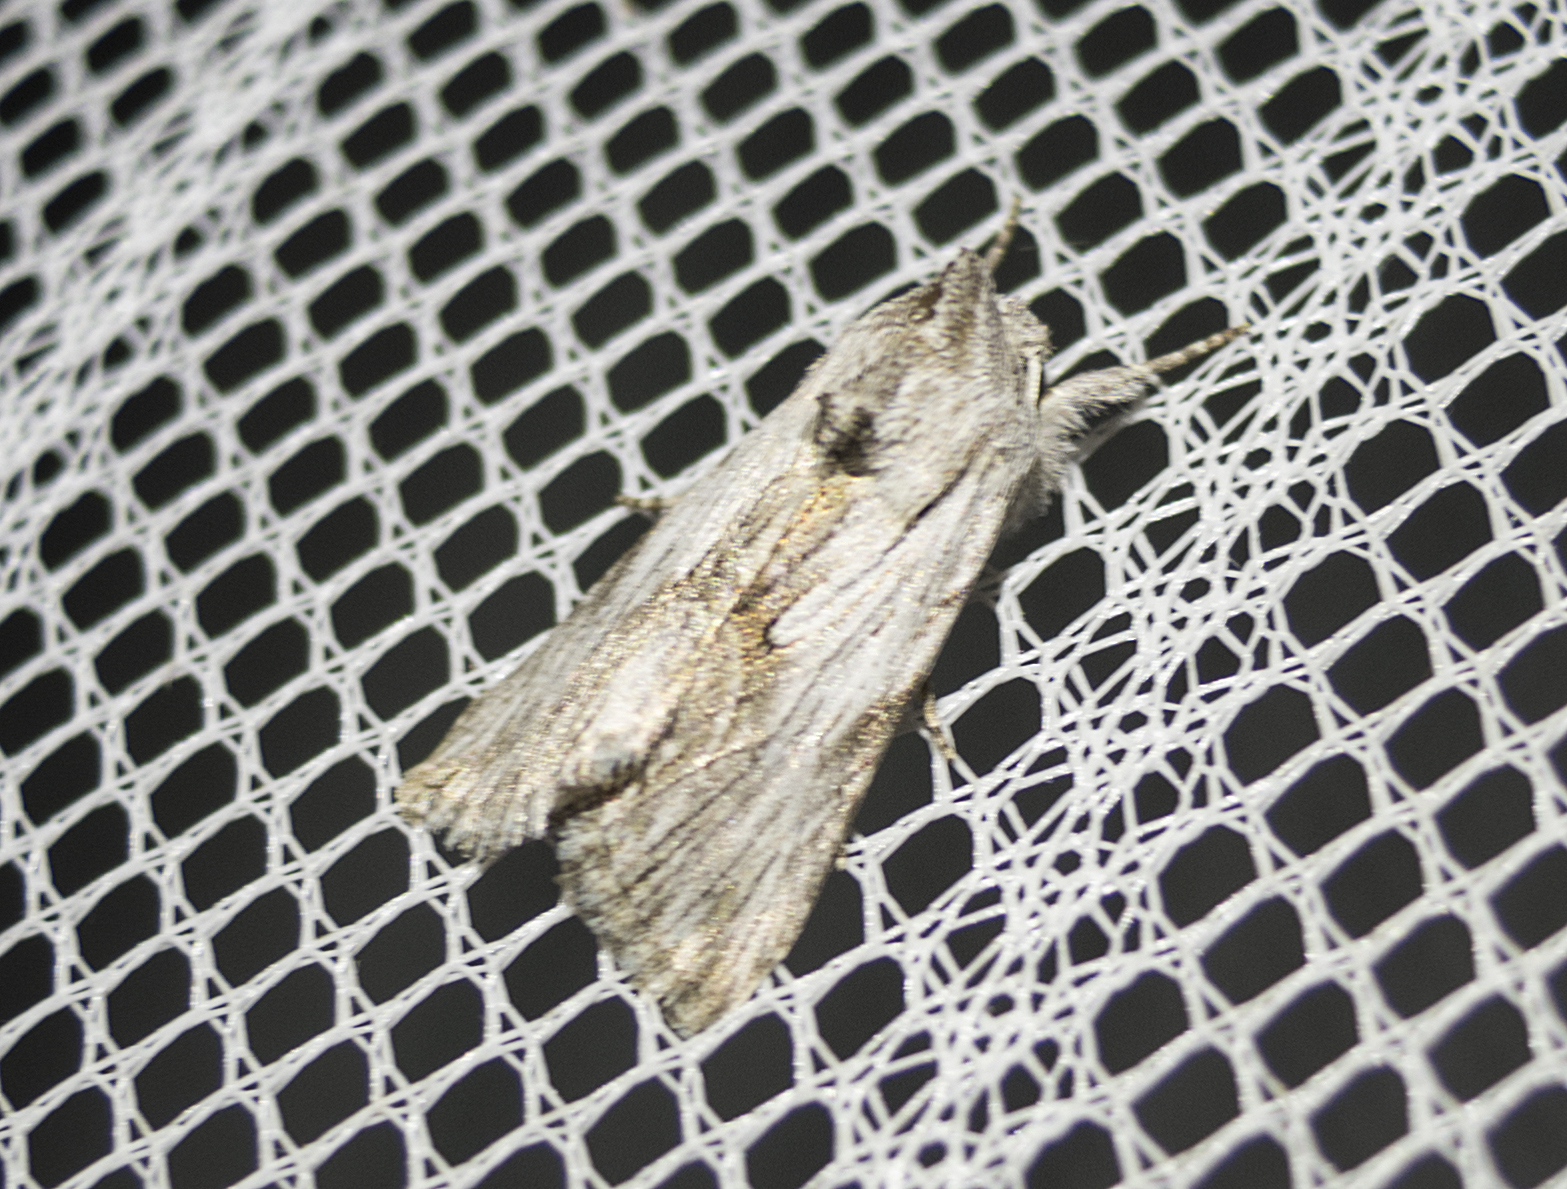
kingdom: Animalia
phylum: Arthropoda
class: Insecta
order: Lepidoptera
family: Noctuidae
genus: Calophasia
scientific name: Calophasia platyptera
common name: Antirrhinum brocade
